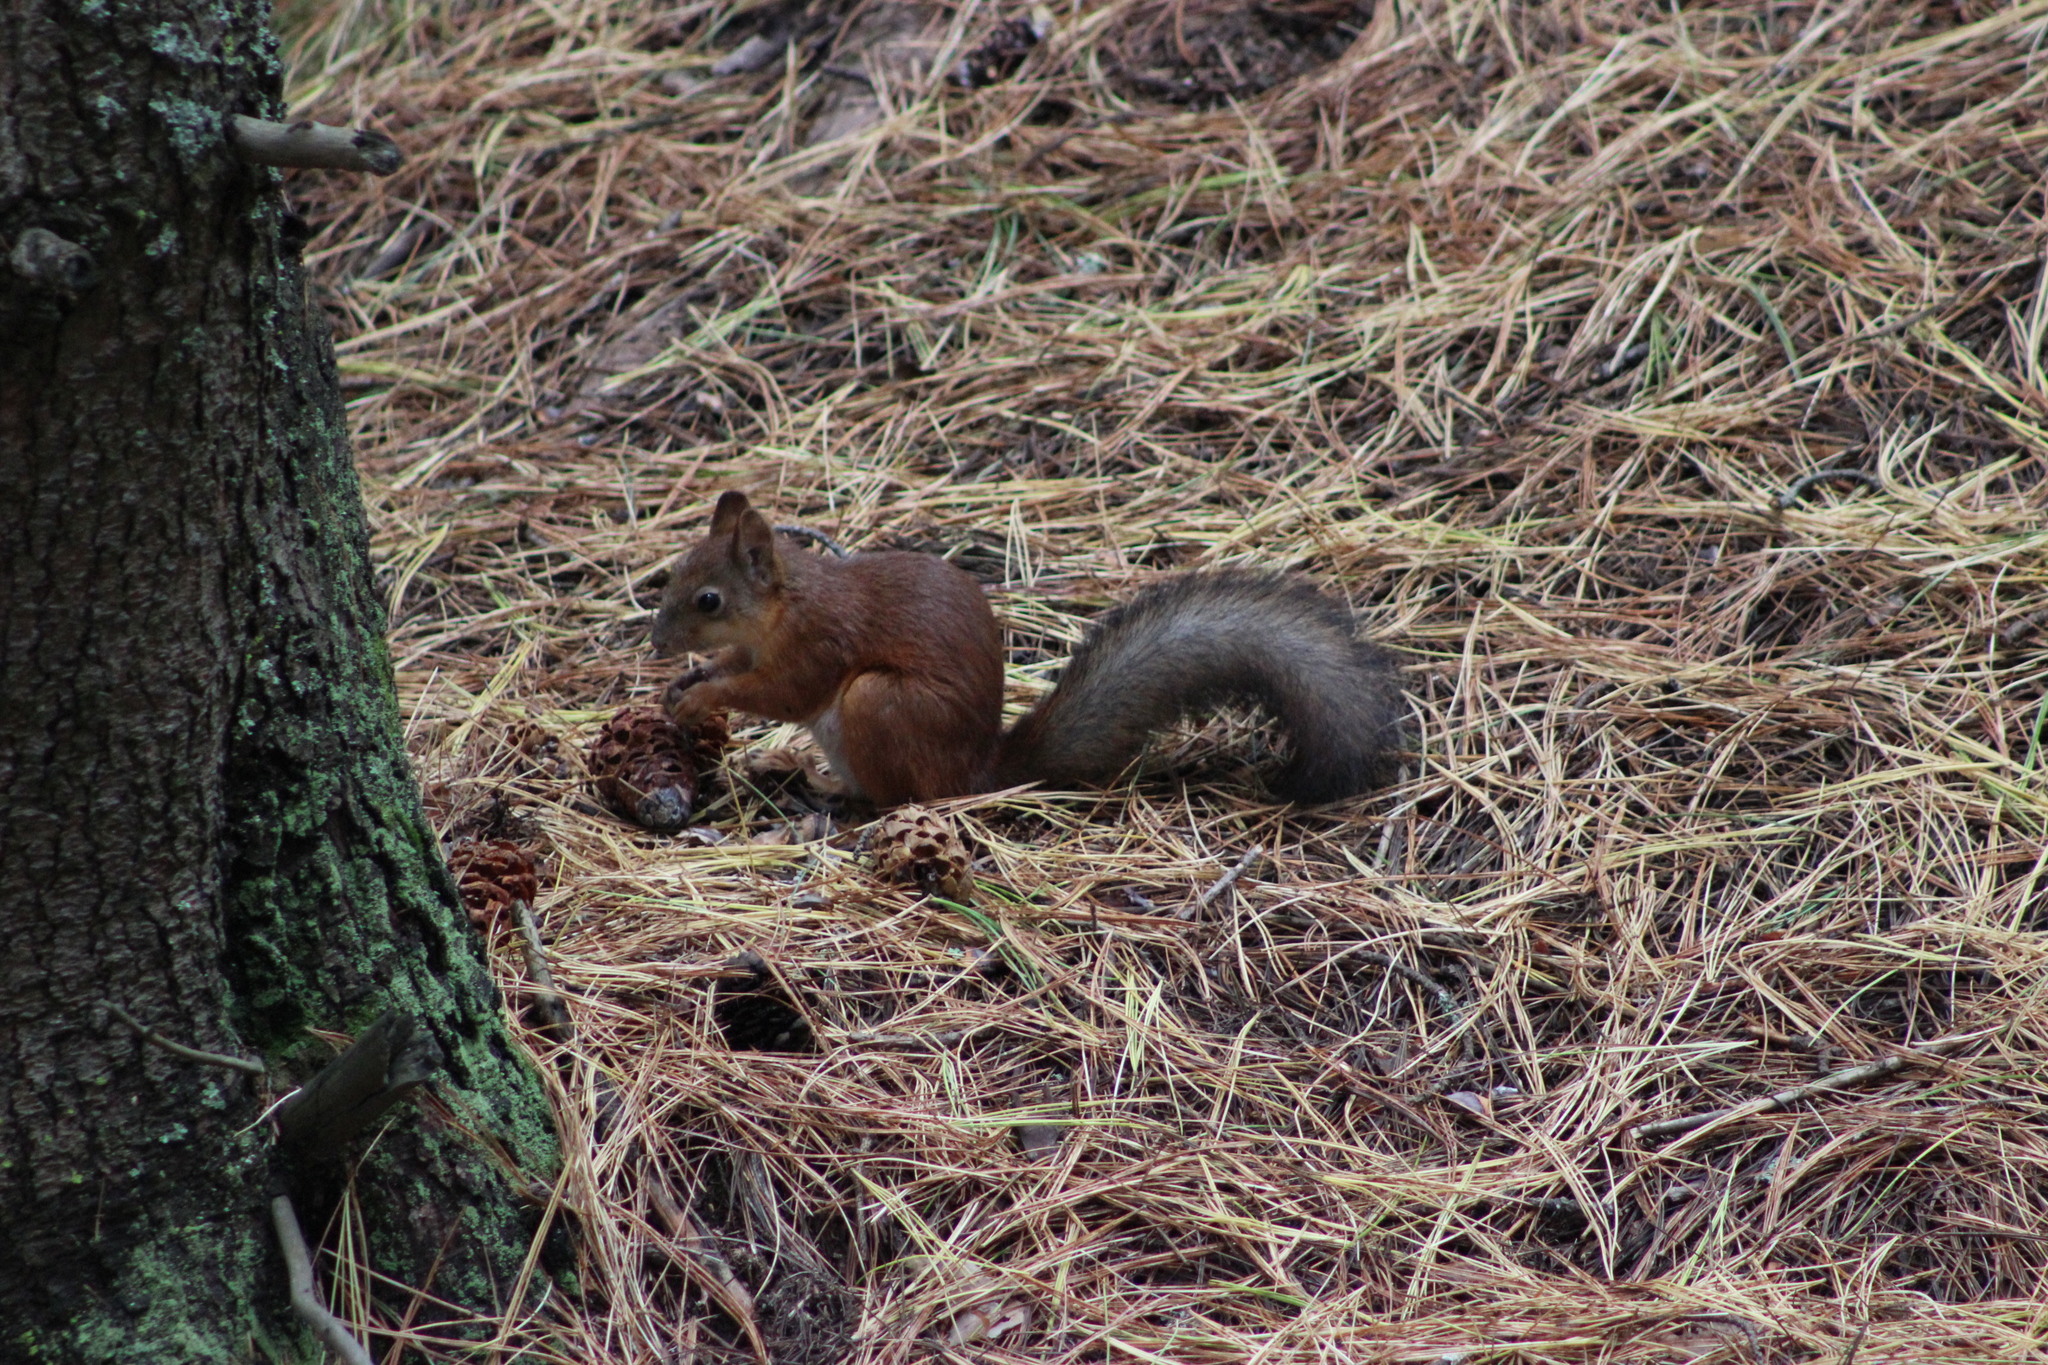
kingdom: Animalia
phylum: Chordata
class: Mammalia
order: Rodentia
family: Sciuridae
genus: Sciurus
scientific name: Sciurus vulgaris
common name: Eurasian red squirrel
